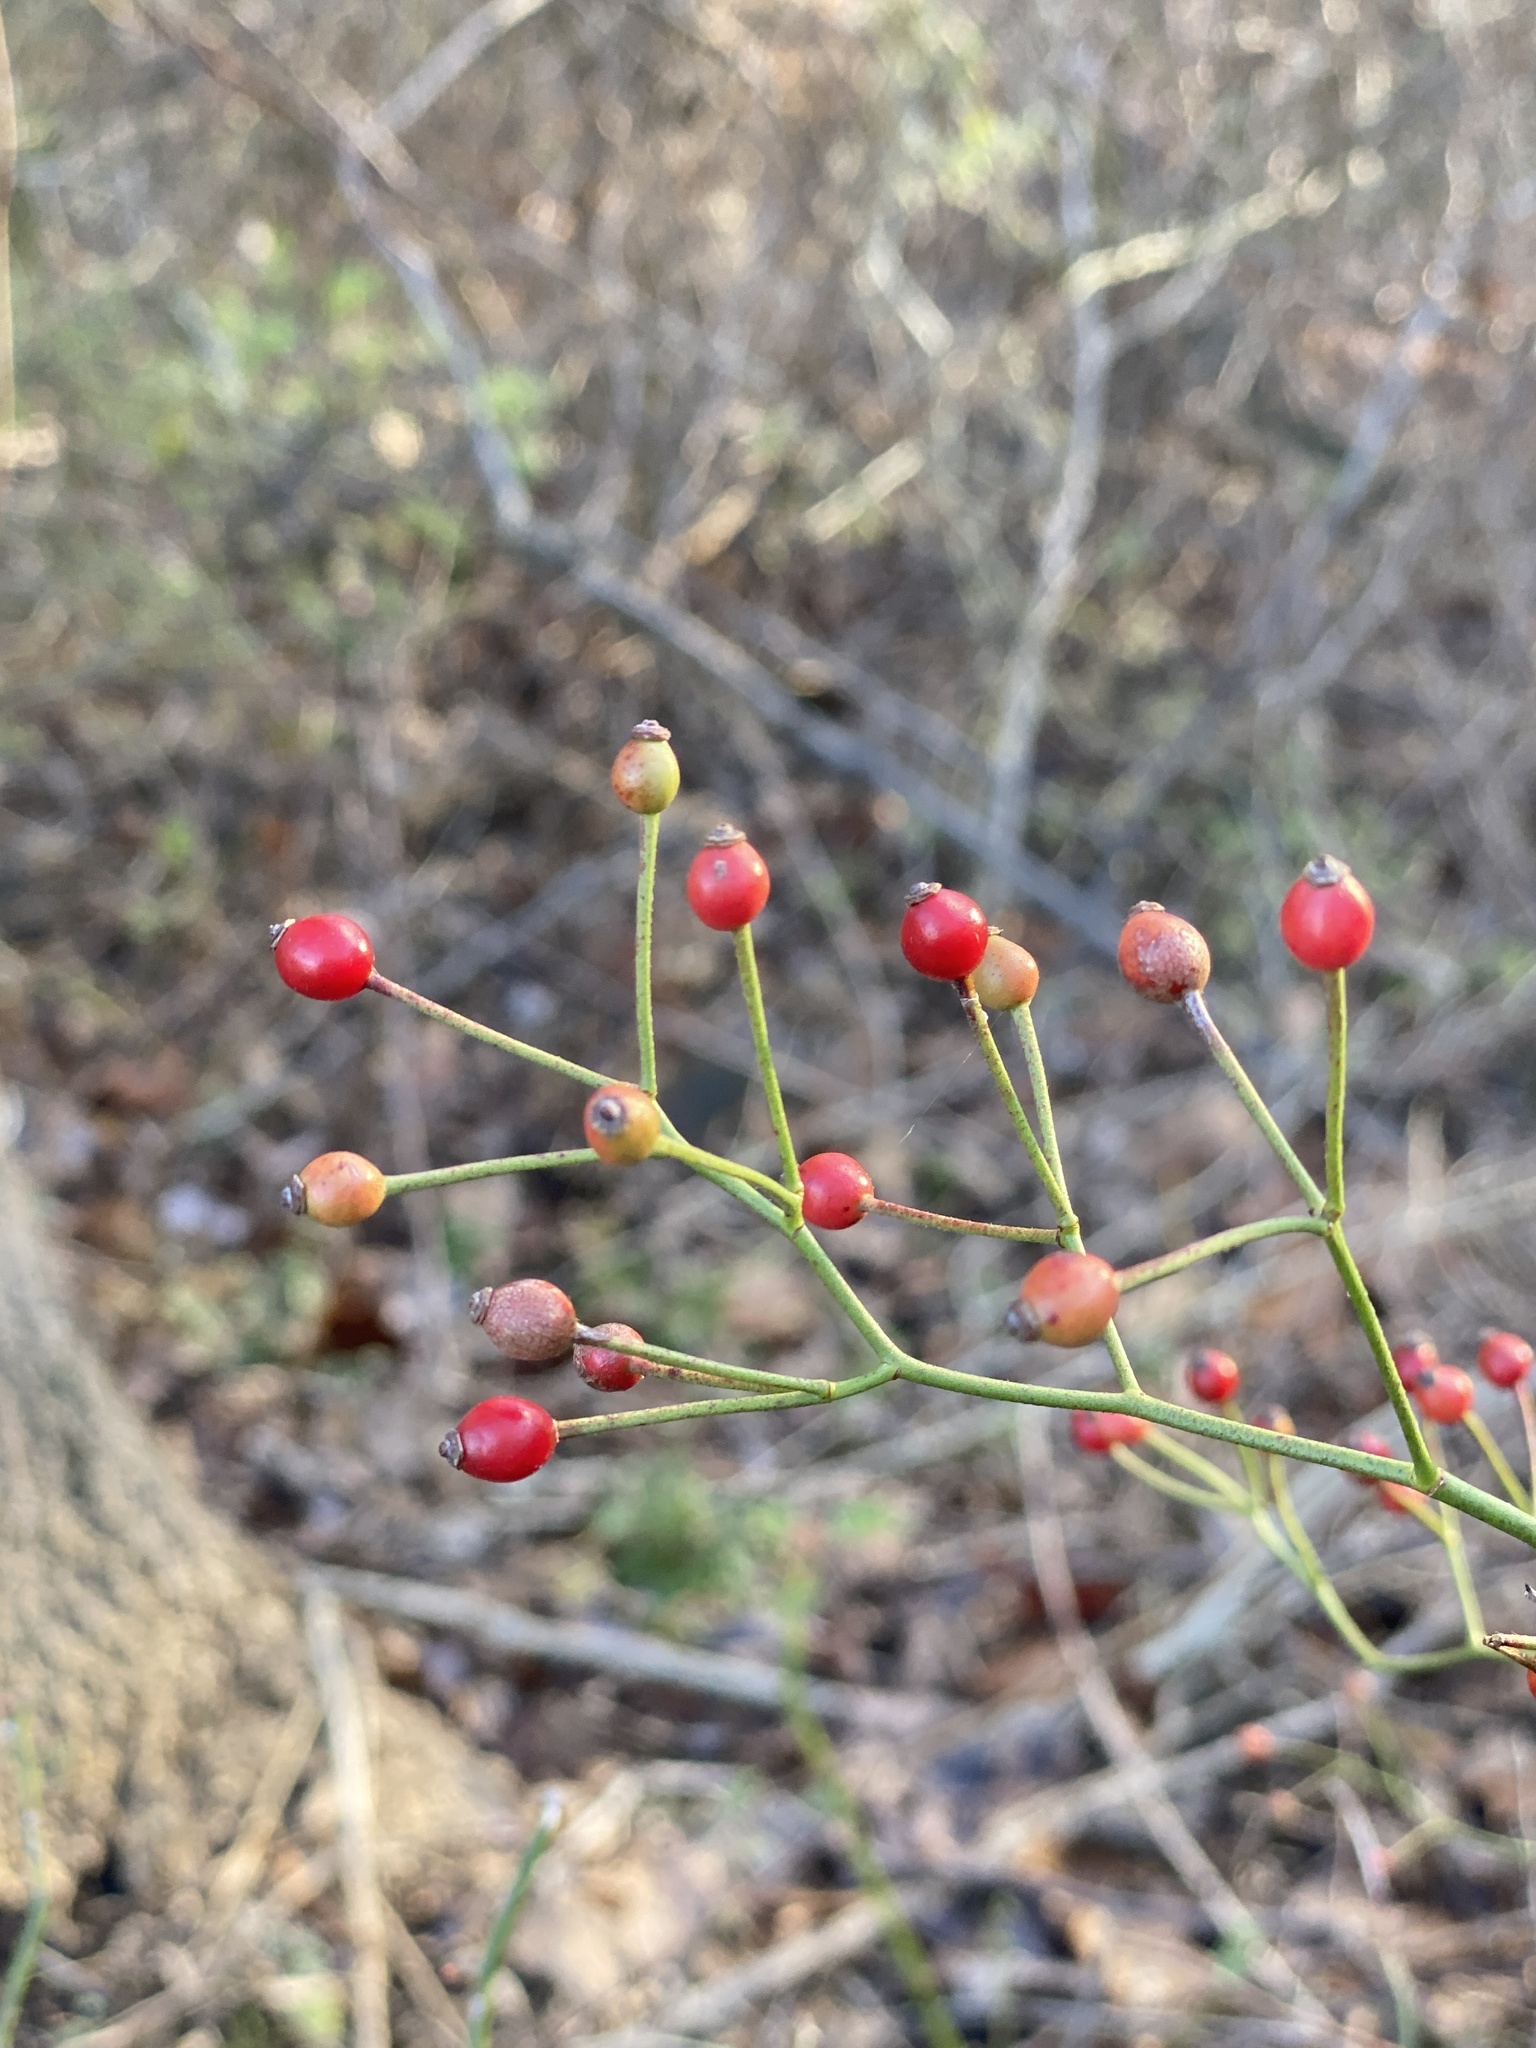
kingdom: Plantae
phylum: Tracheophyta
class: Magnoliopsida
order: Rosales
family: Rosaceae
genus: Rosa
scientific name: Rosa multiflora
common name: Multiflora rose
